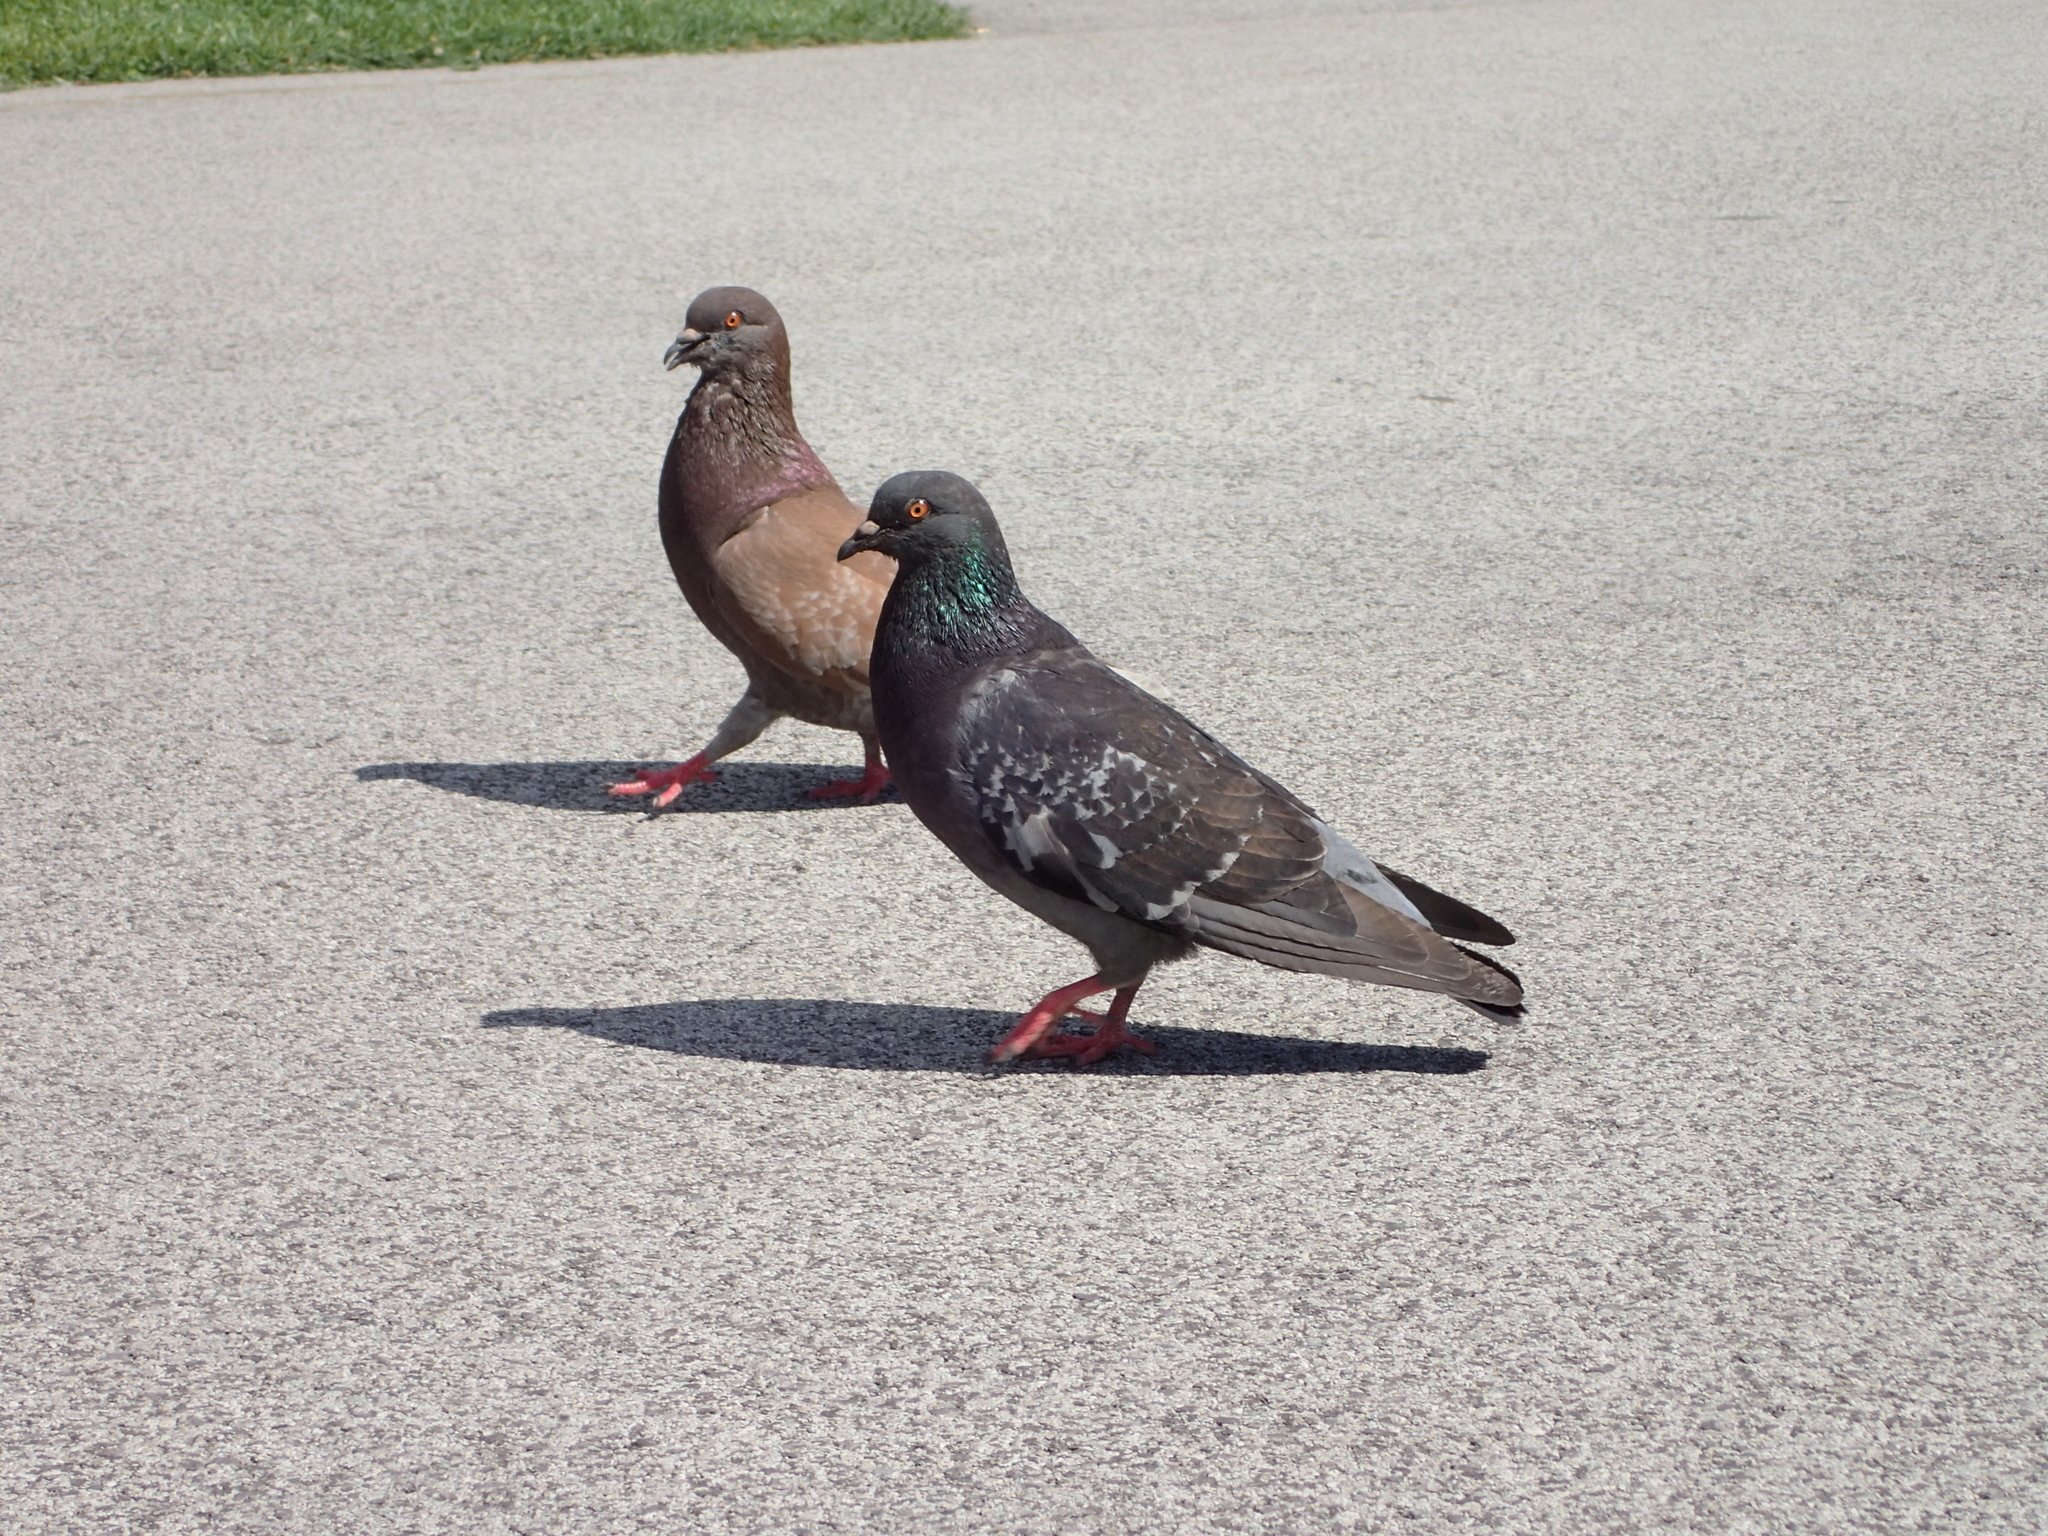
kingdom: Animalia
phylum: Chordata
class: Aves
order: Columbiformes
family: Columbidae
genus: Columba
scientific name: Columba livia
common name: Rock pigeon
